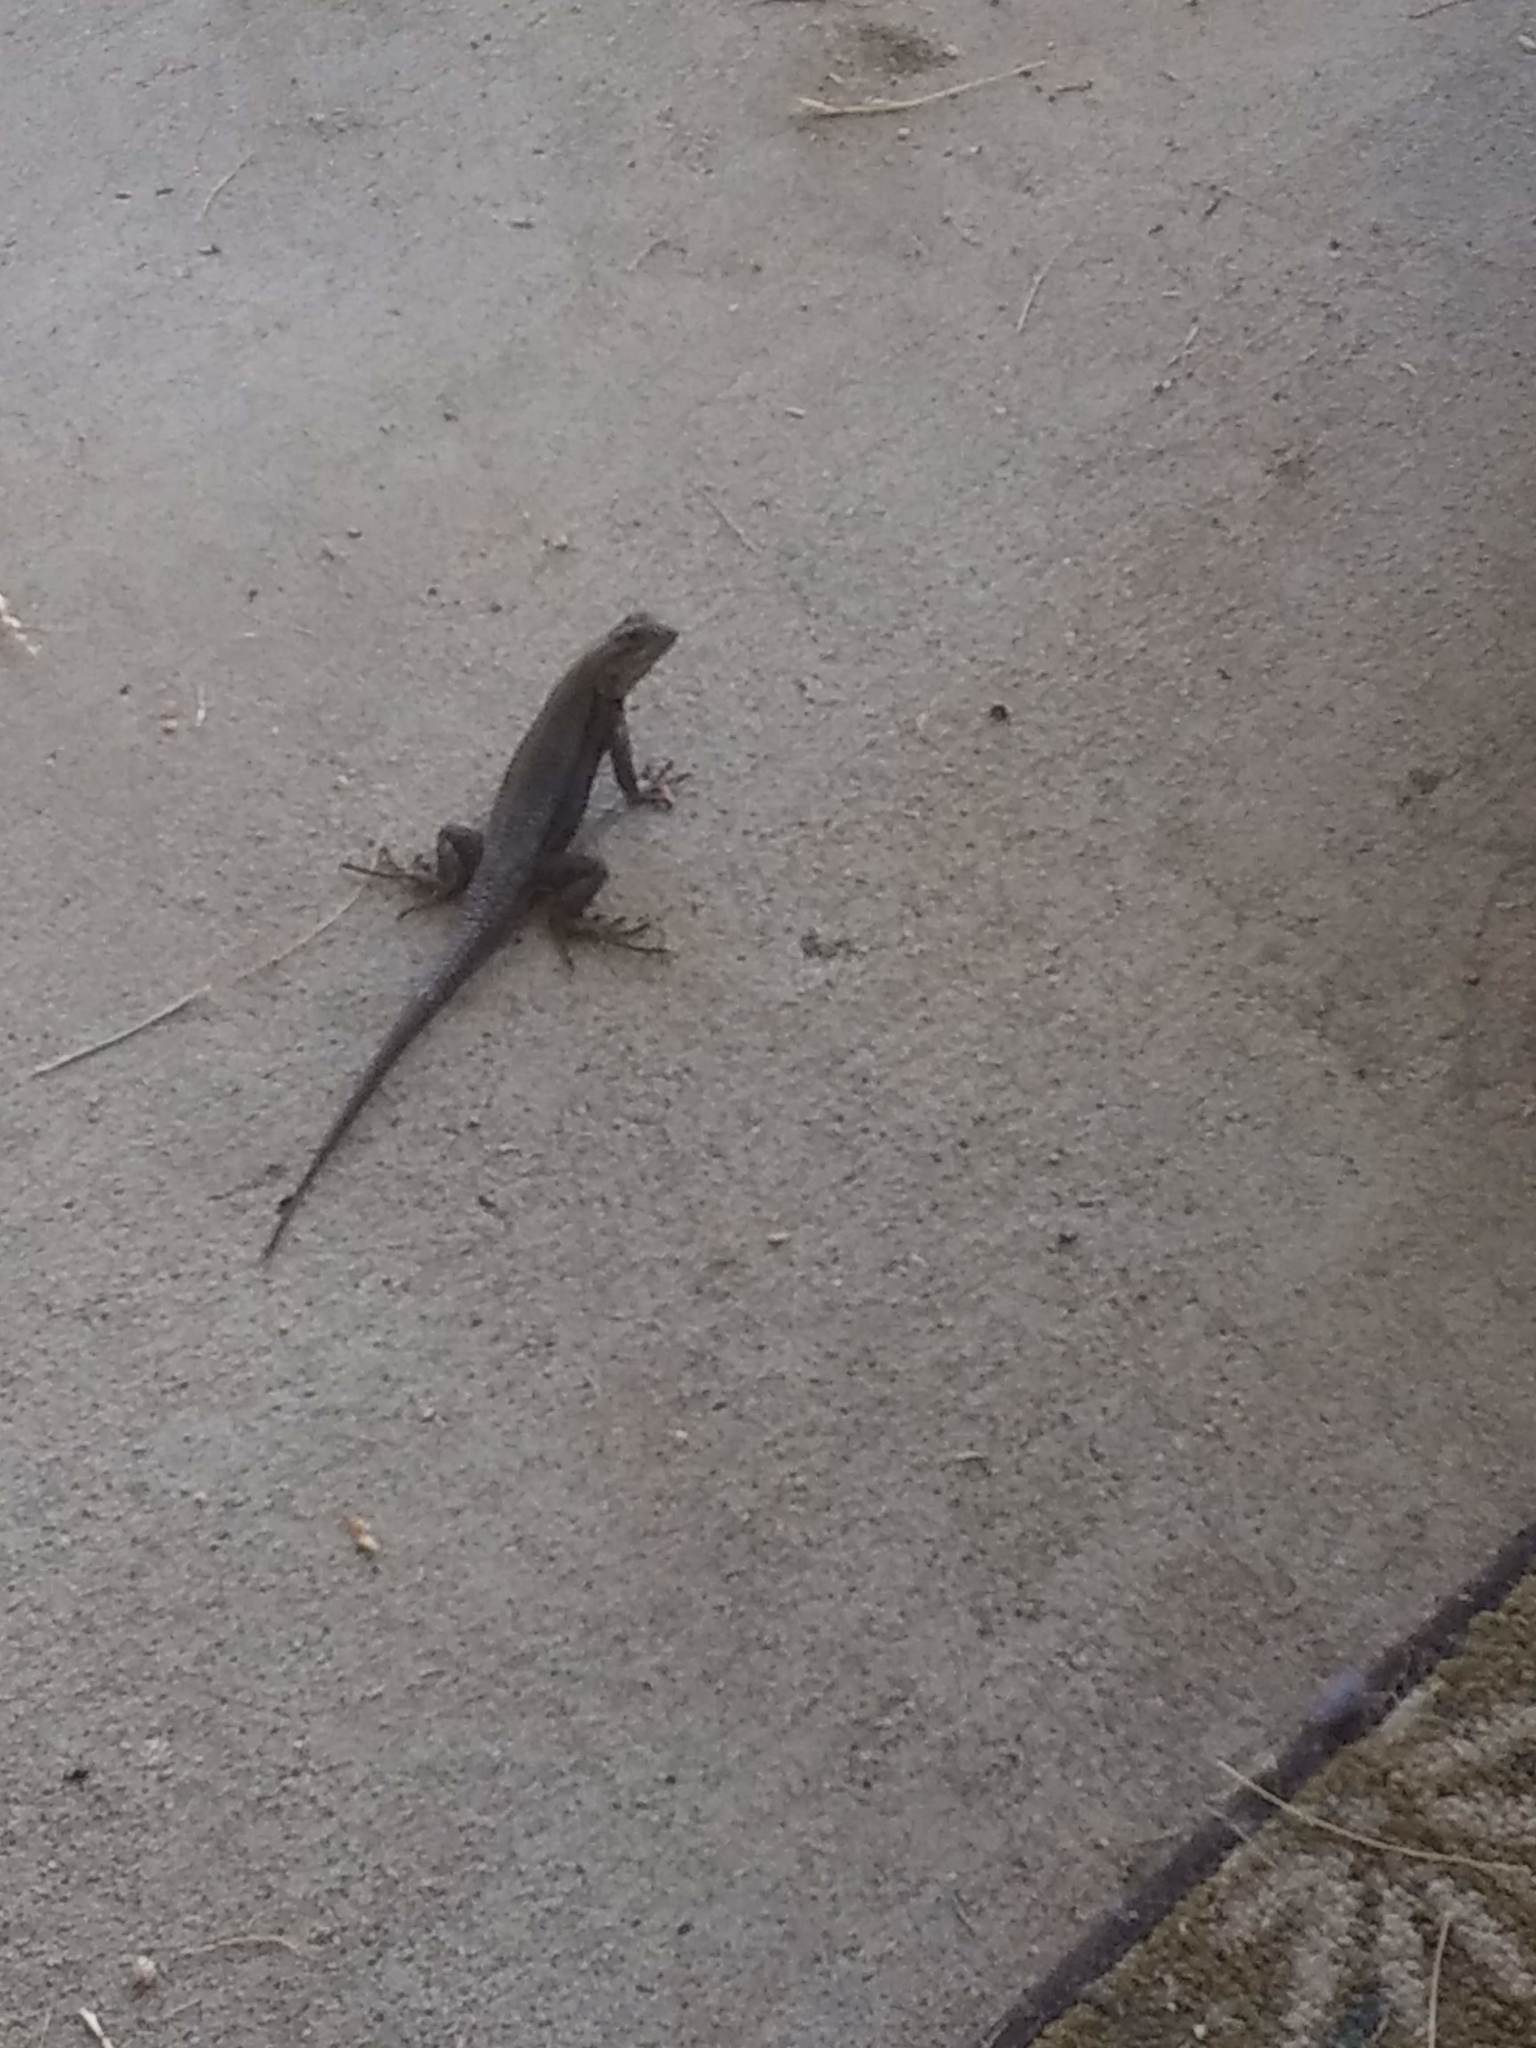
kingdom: Animalia
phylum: Chordata
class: Squamata
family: Phrynosomatidae
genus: Sceloporus
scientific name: Sceloporus occidentalis
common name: Western fence lizard
